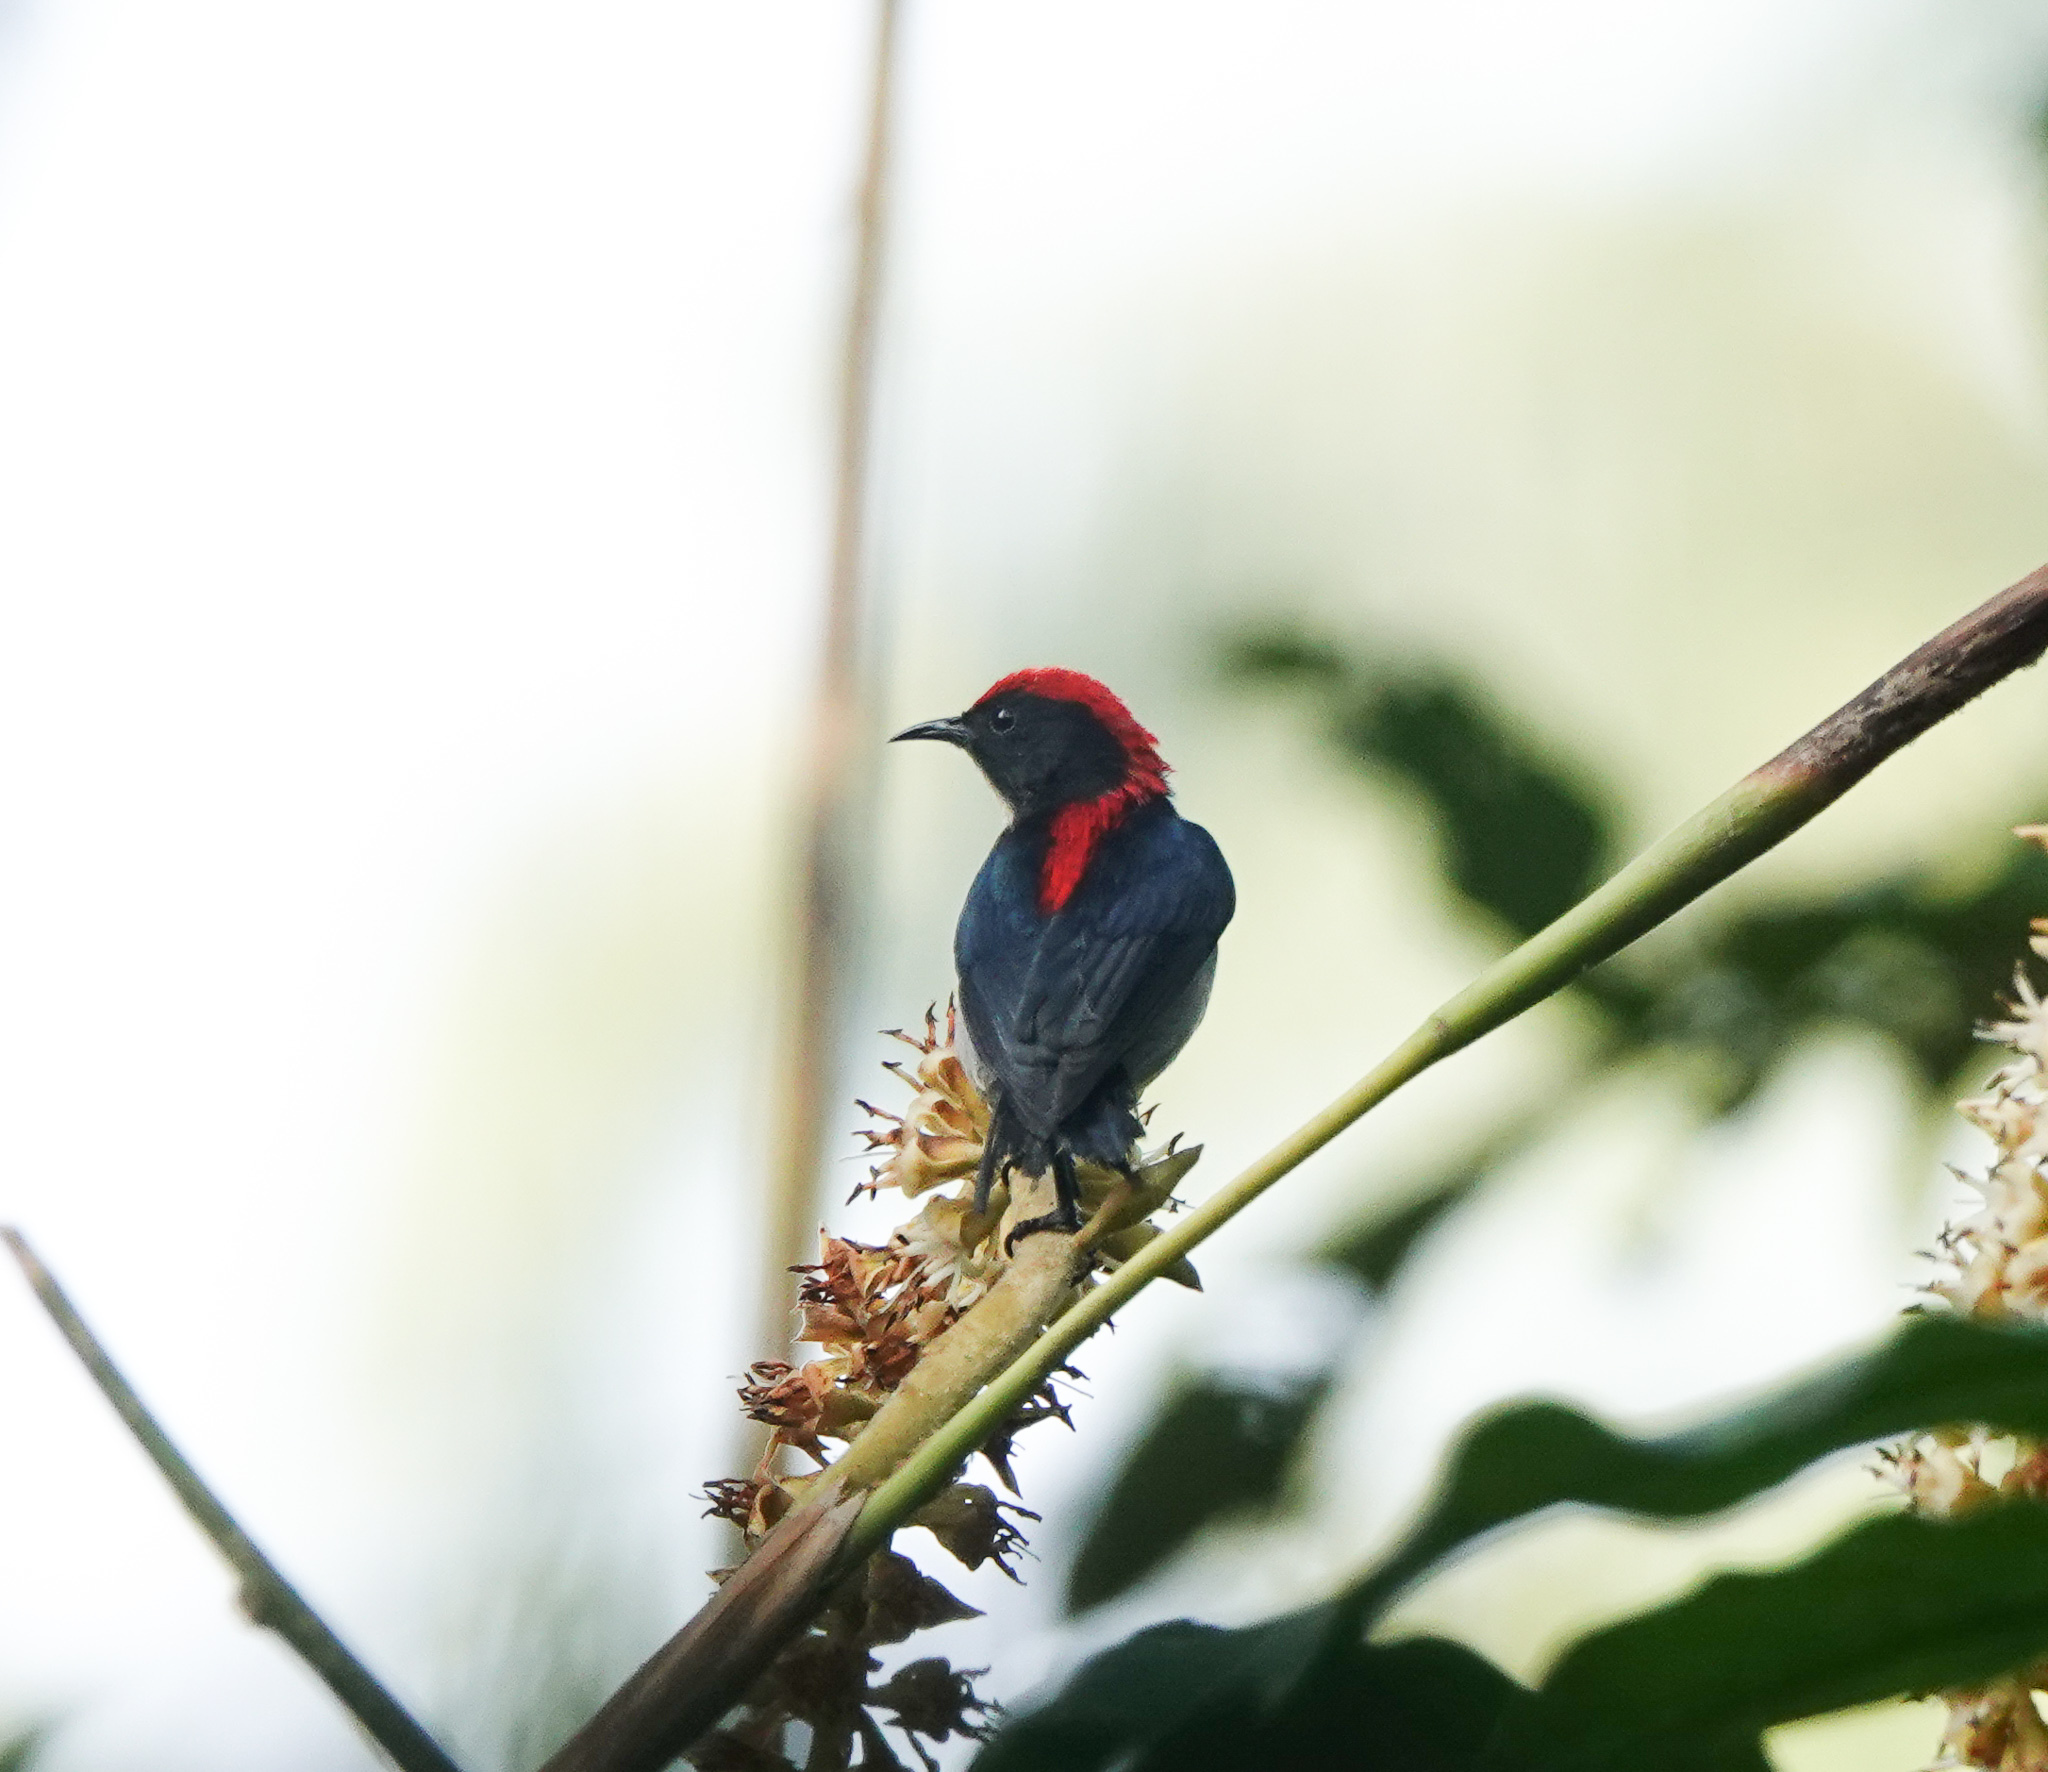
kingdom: Animalia
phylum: Chordata
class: Aves
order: Passeriformes
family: Dicaeidae
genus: Dicaeum
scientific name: Dicaeum cruentatum
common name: Scarlet-backed flowerpecker
